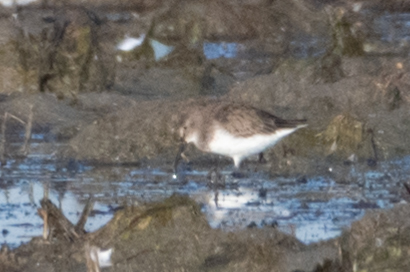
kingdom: Animalia
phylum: Chordata
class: Aves
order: Charadriiformes
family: Scolopacidae
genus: Calidris
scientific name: Calidris alpina
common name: Dunlin
